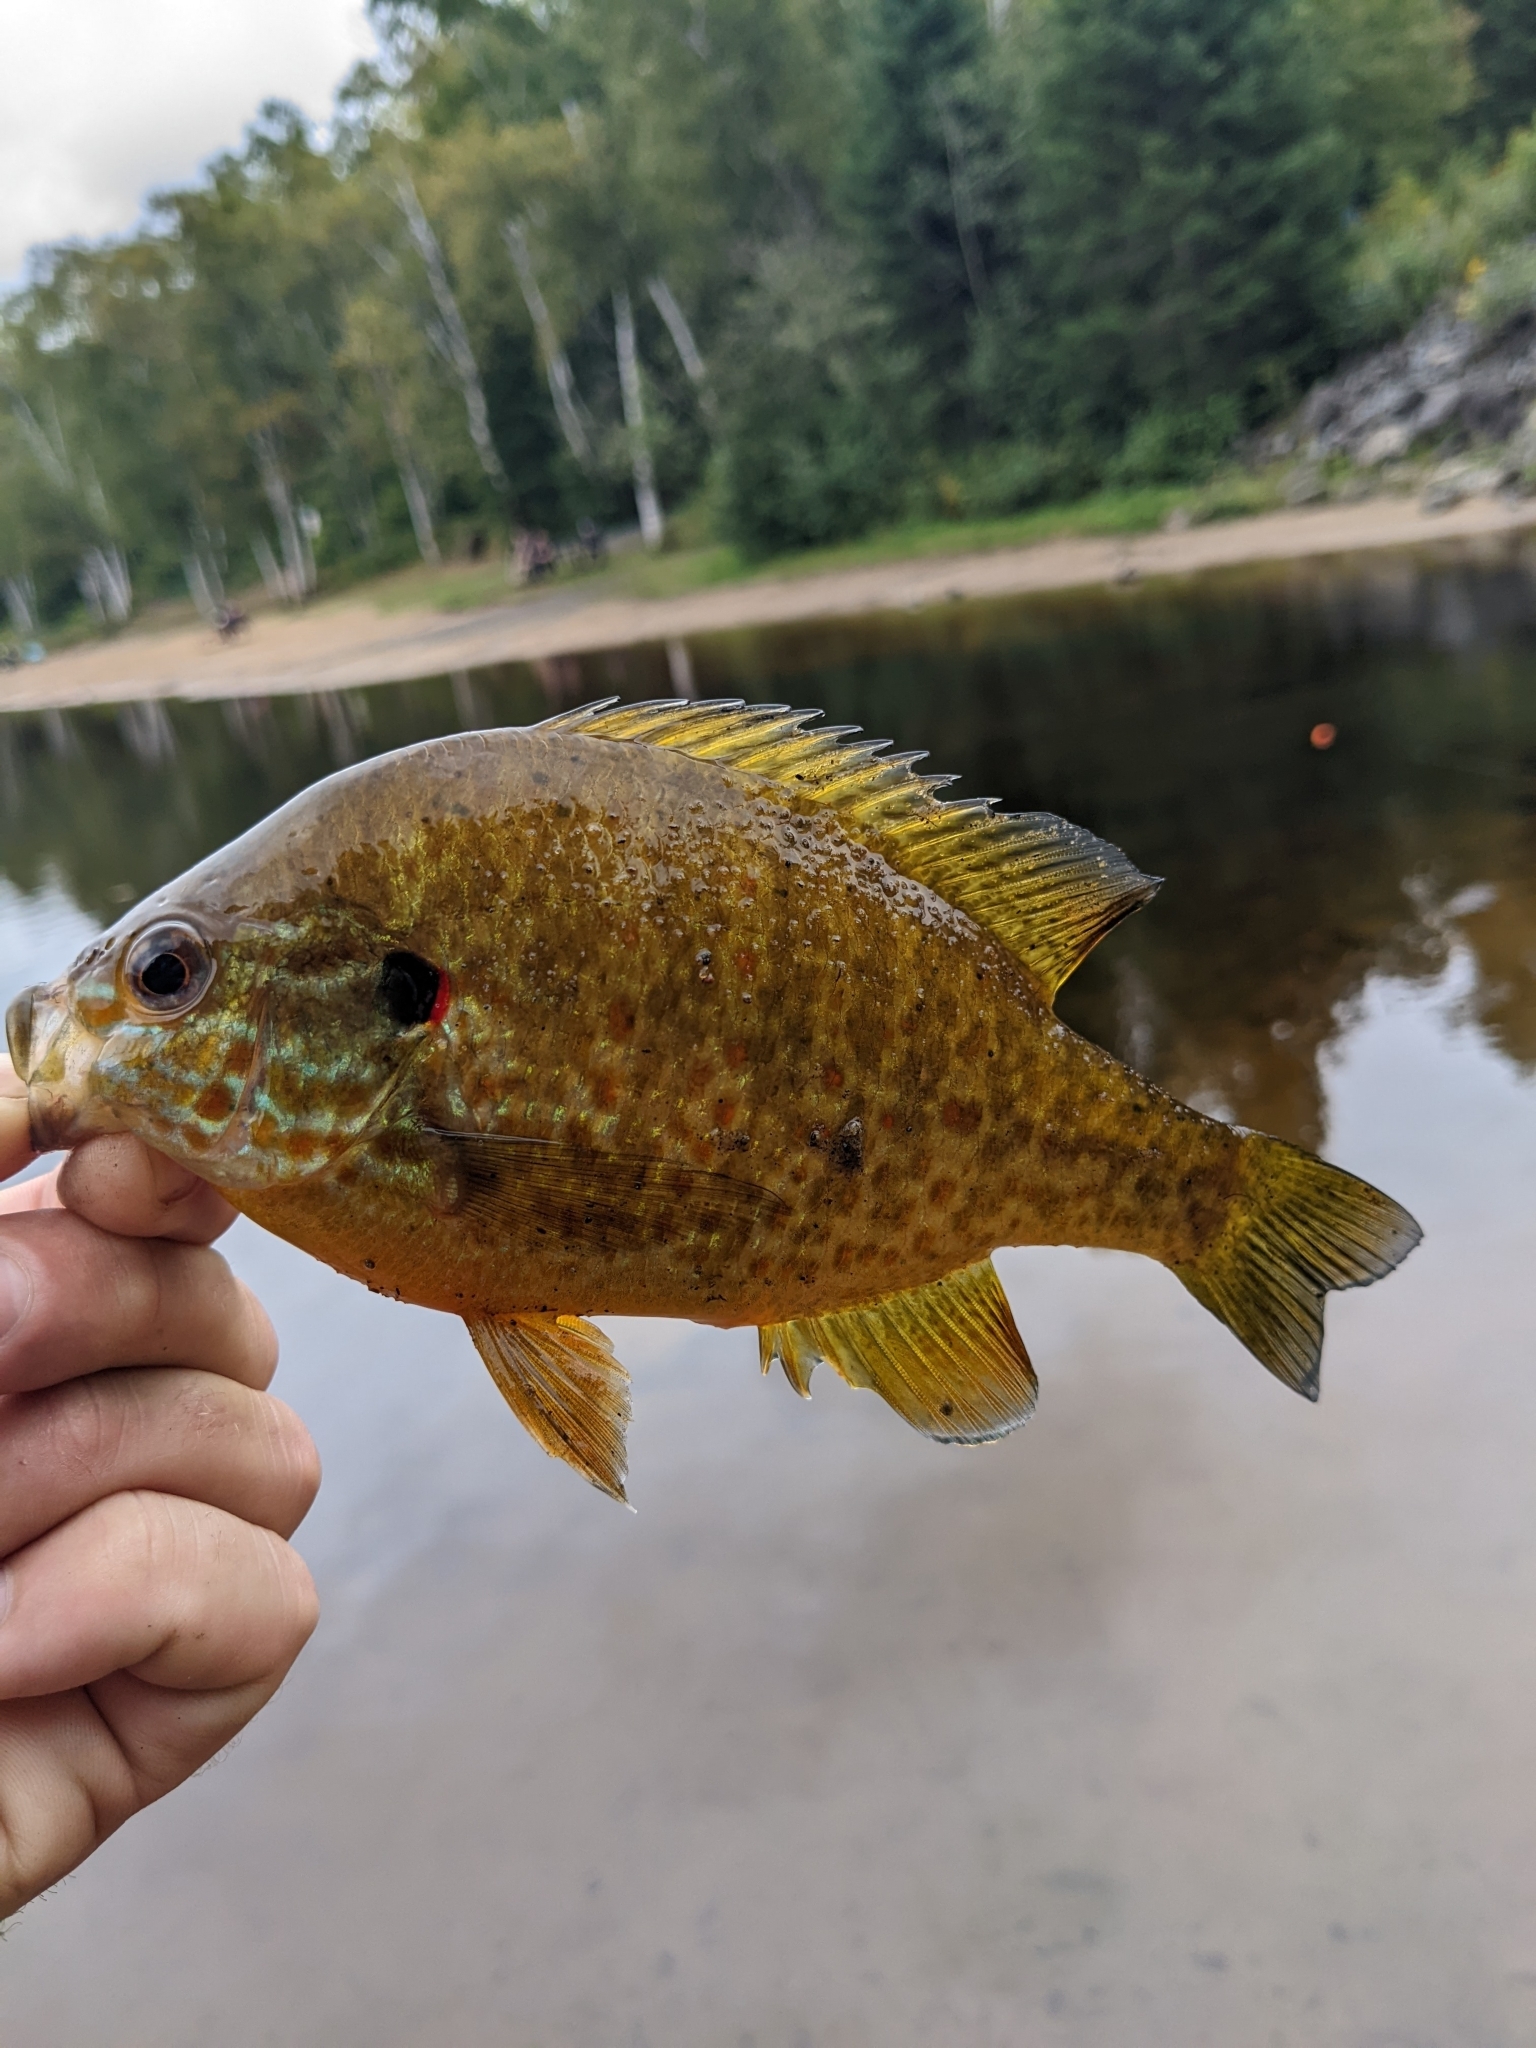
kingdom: Animalia
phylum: Chordata
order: Perciformes
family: Centrarchidae
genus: Lepomis
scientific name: Lepomis gibbosus
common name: Pumpkinseed
